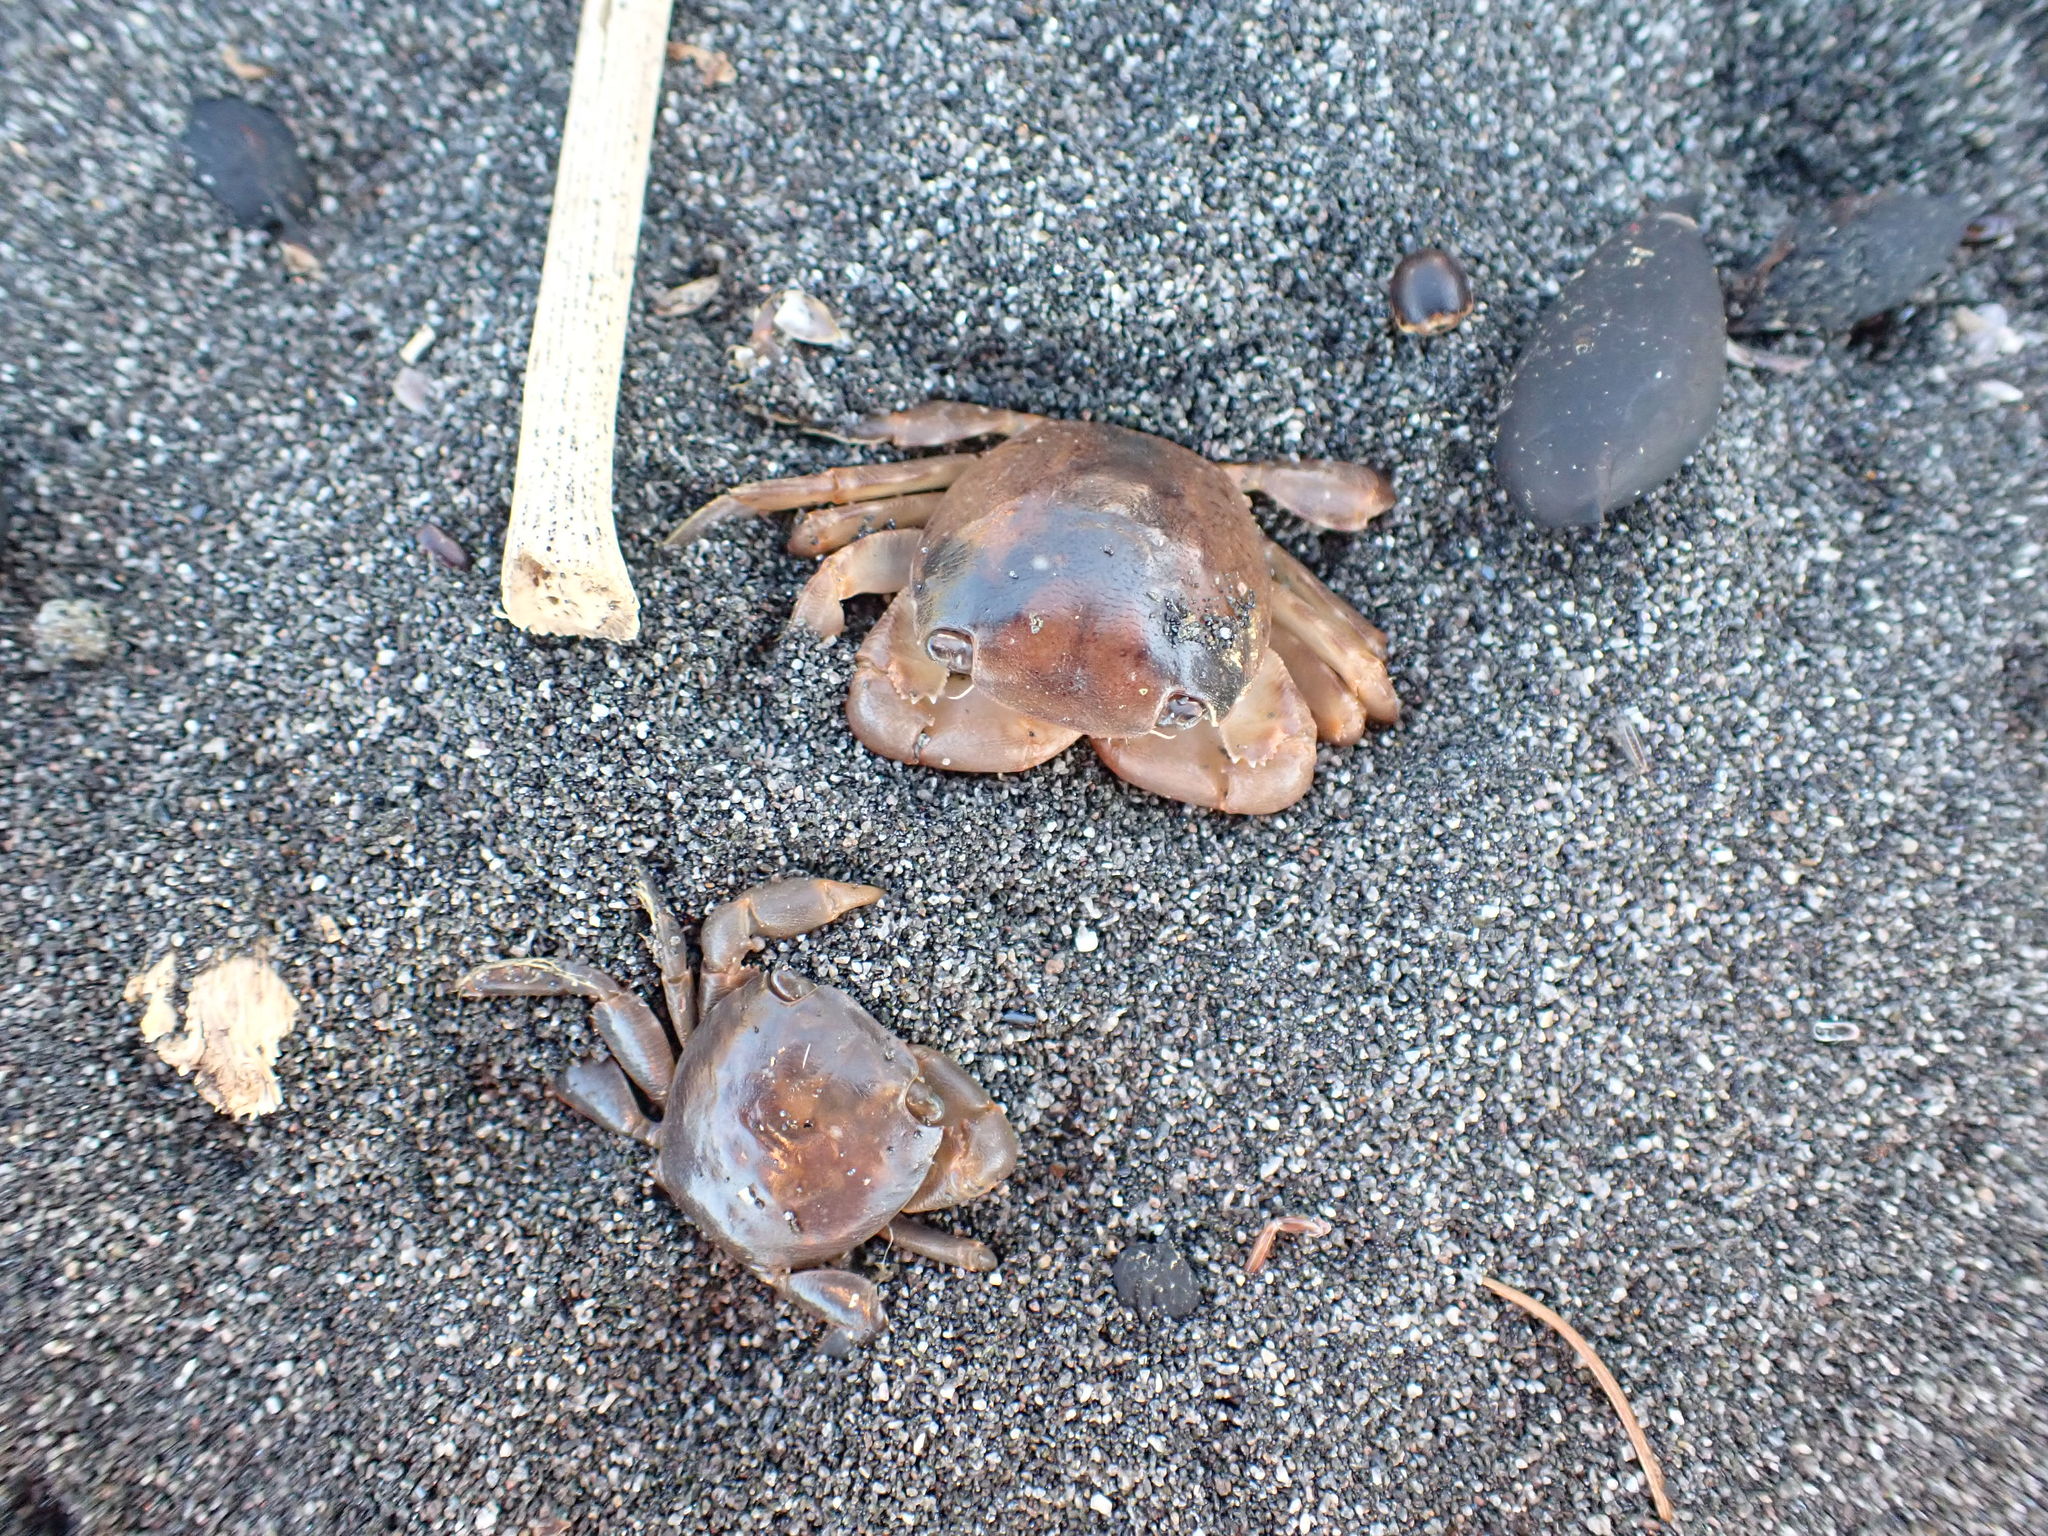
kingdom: Animalia
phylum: Arthropoda
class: Malacostraca
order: Decapoda
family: Grapsidae
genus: Planes
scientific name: Planes minutus
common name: Gulf weed crab
